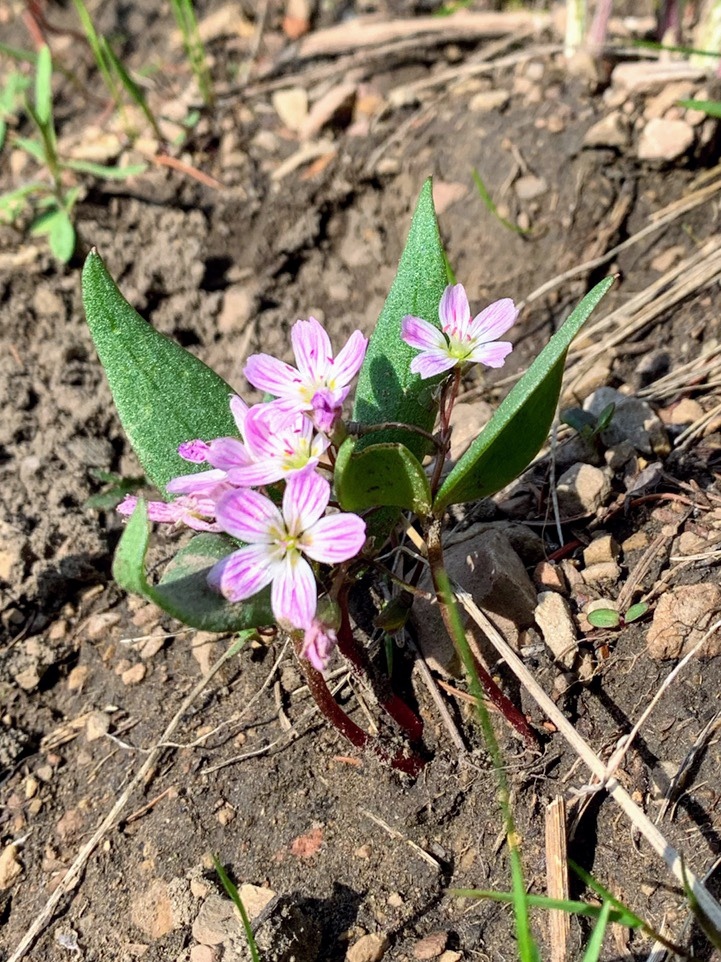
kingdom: Plantae
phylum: Tracheophyta
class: Magnoliopsida
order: Caryophyllales
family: Montiaceae
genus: Claytonia
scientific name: Claytonia lanceolata
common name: Western spring-beauty
